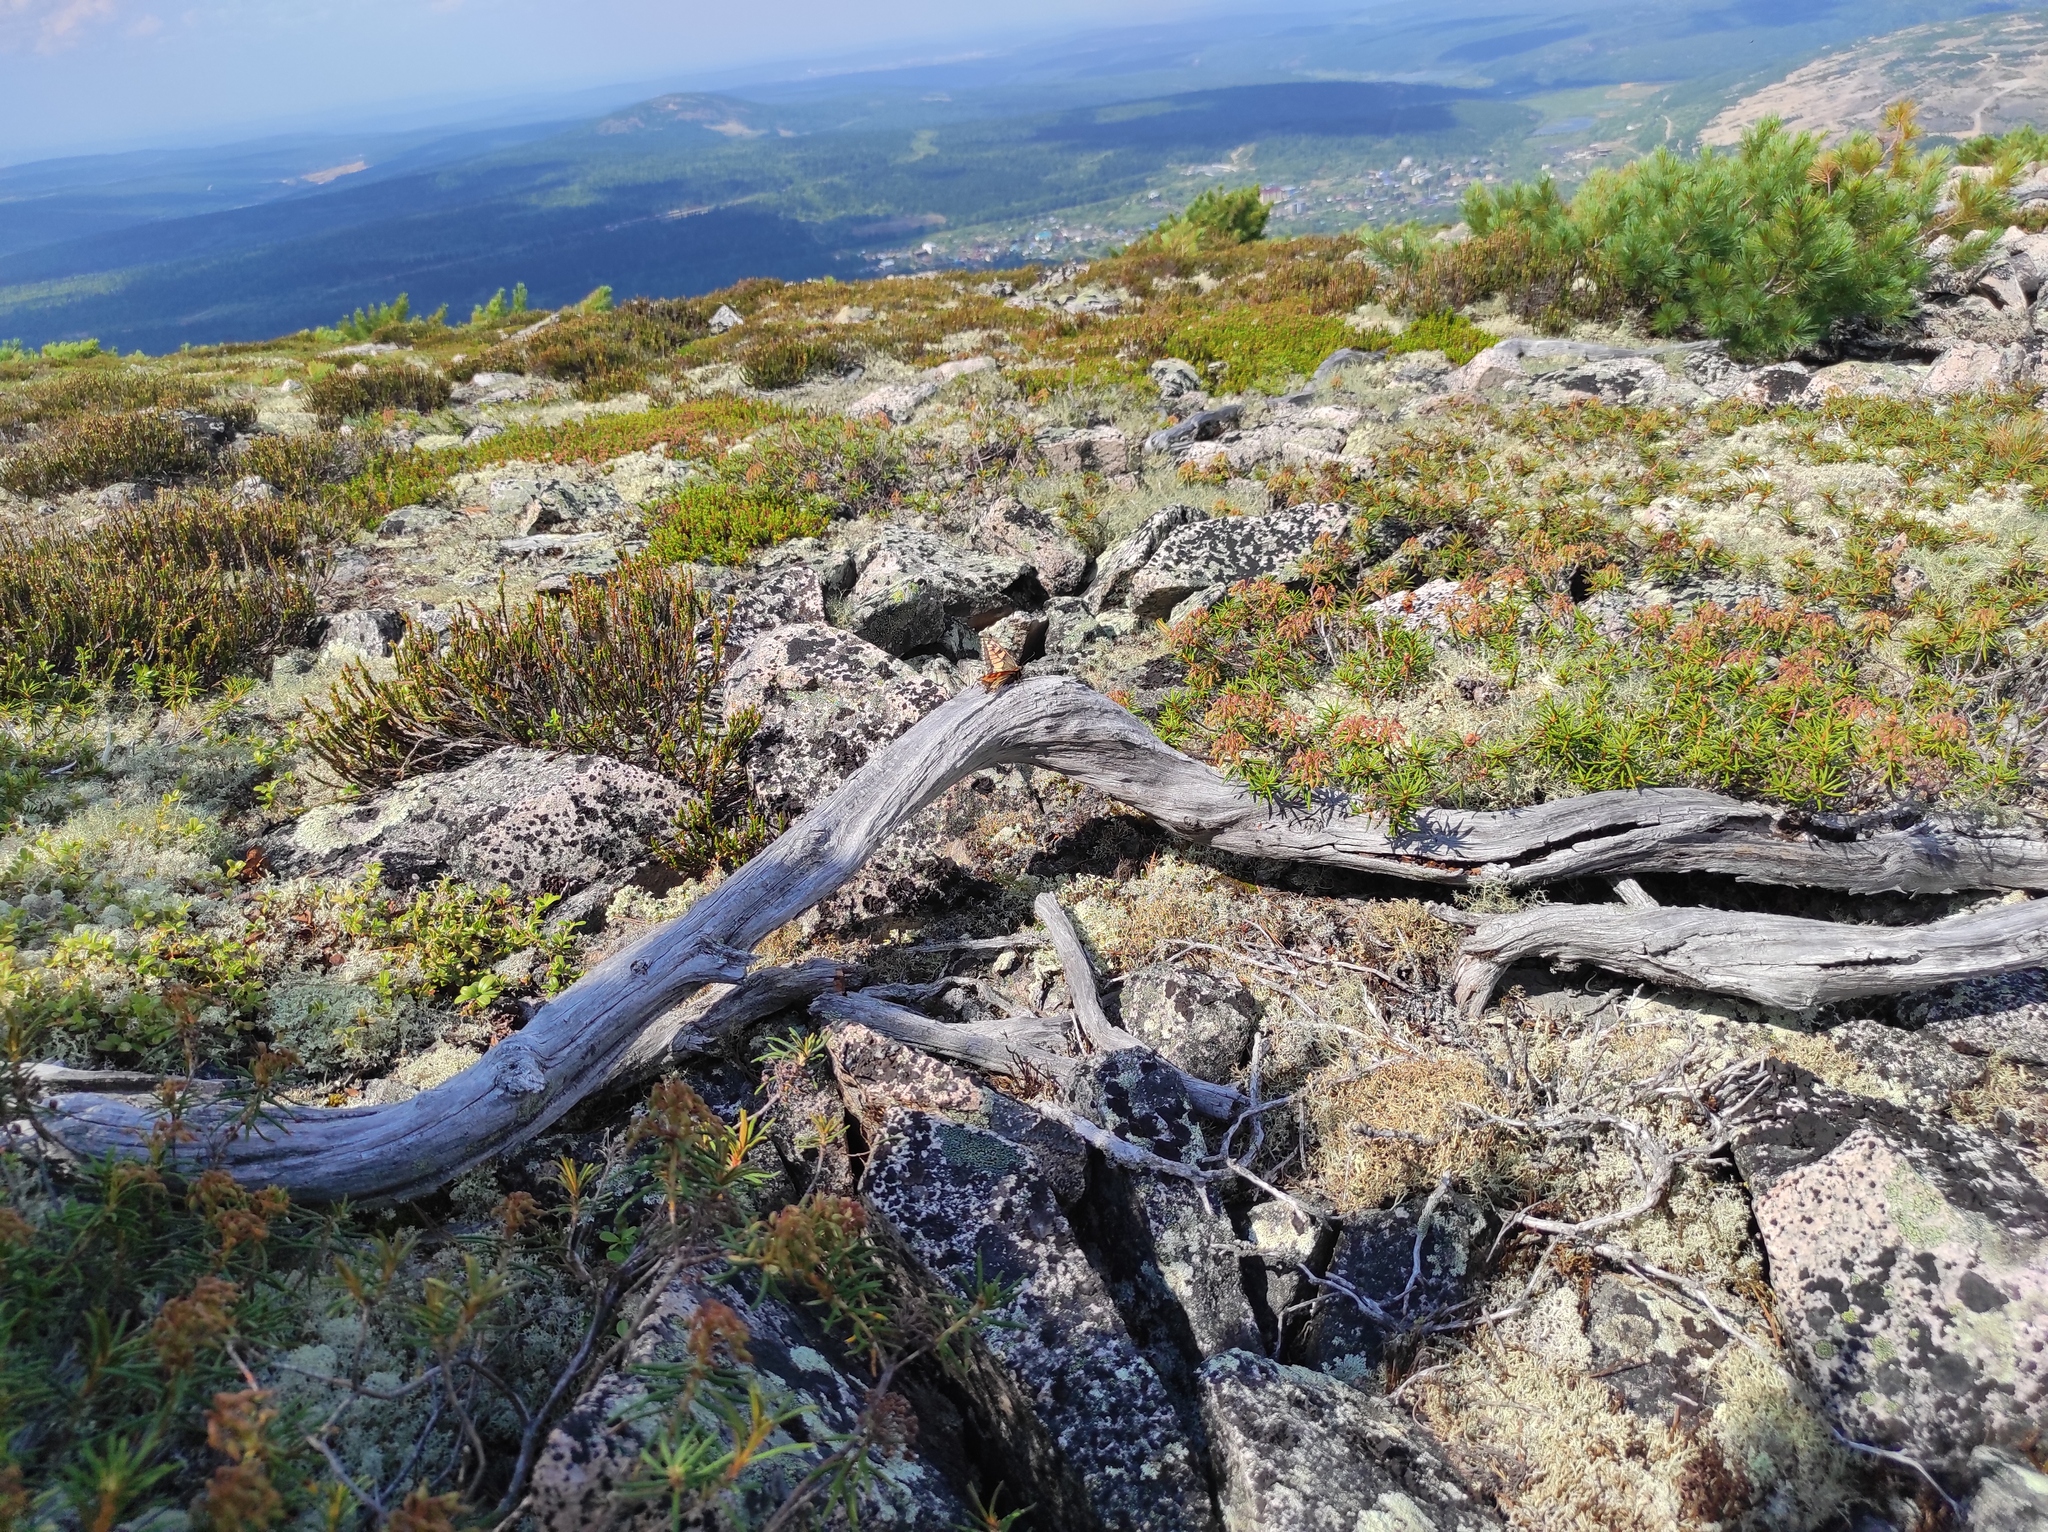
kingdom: Plantae
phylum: Tracheophyta
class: Magnoliopsida
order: Ericales
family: Ericaceae
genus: Rhododendron
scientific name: Rhododendron tomentosum
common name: Marsh labrador tea
